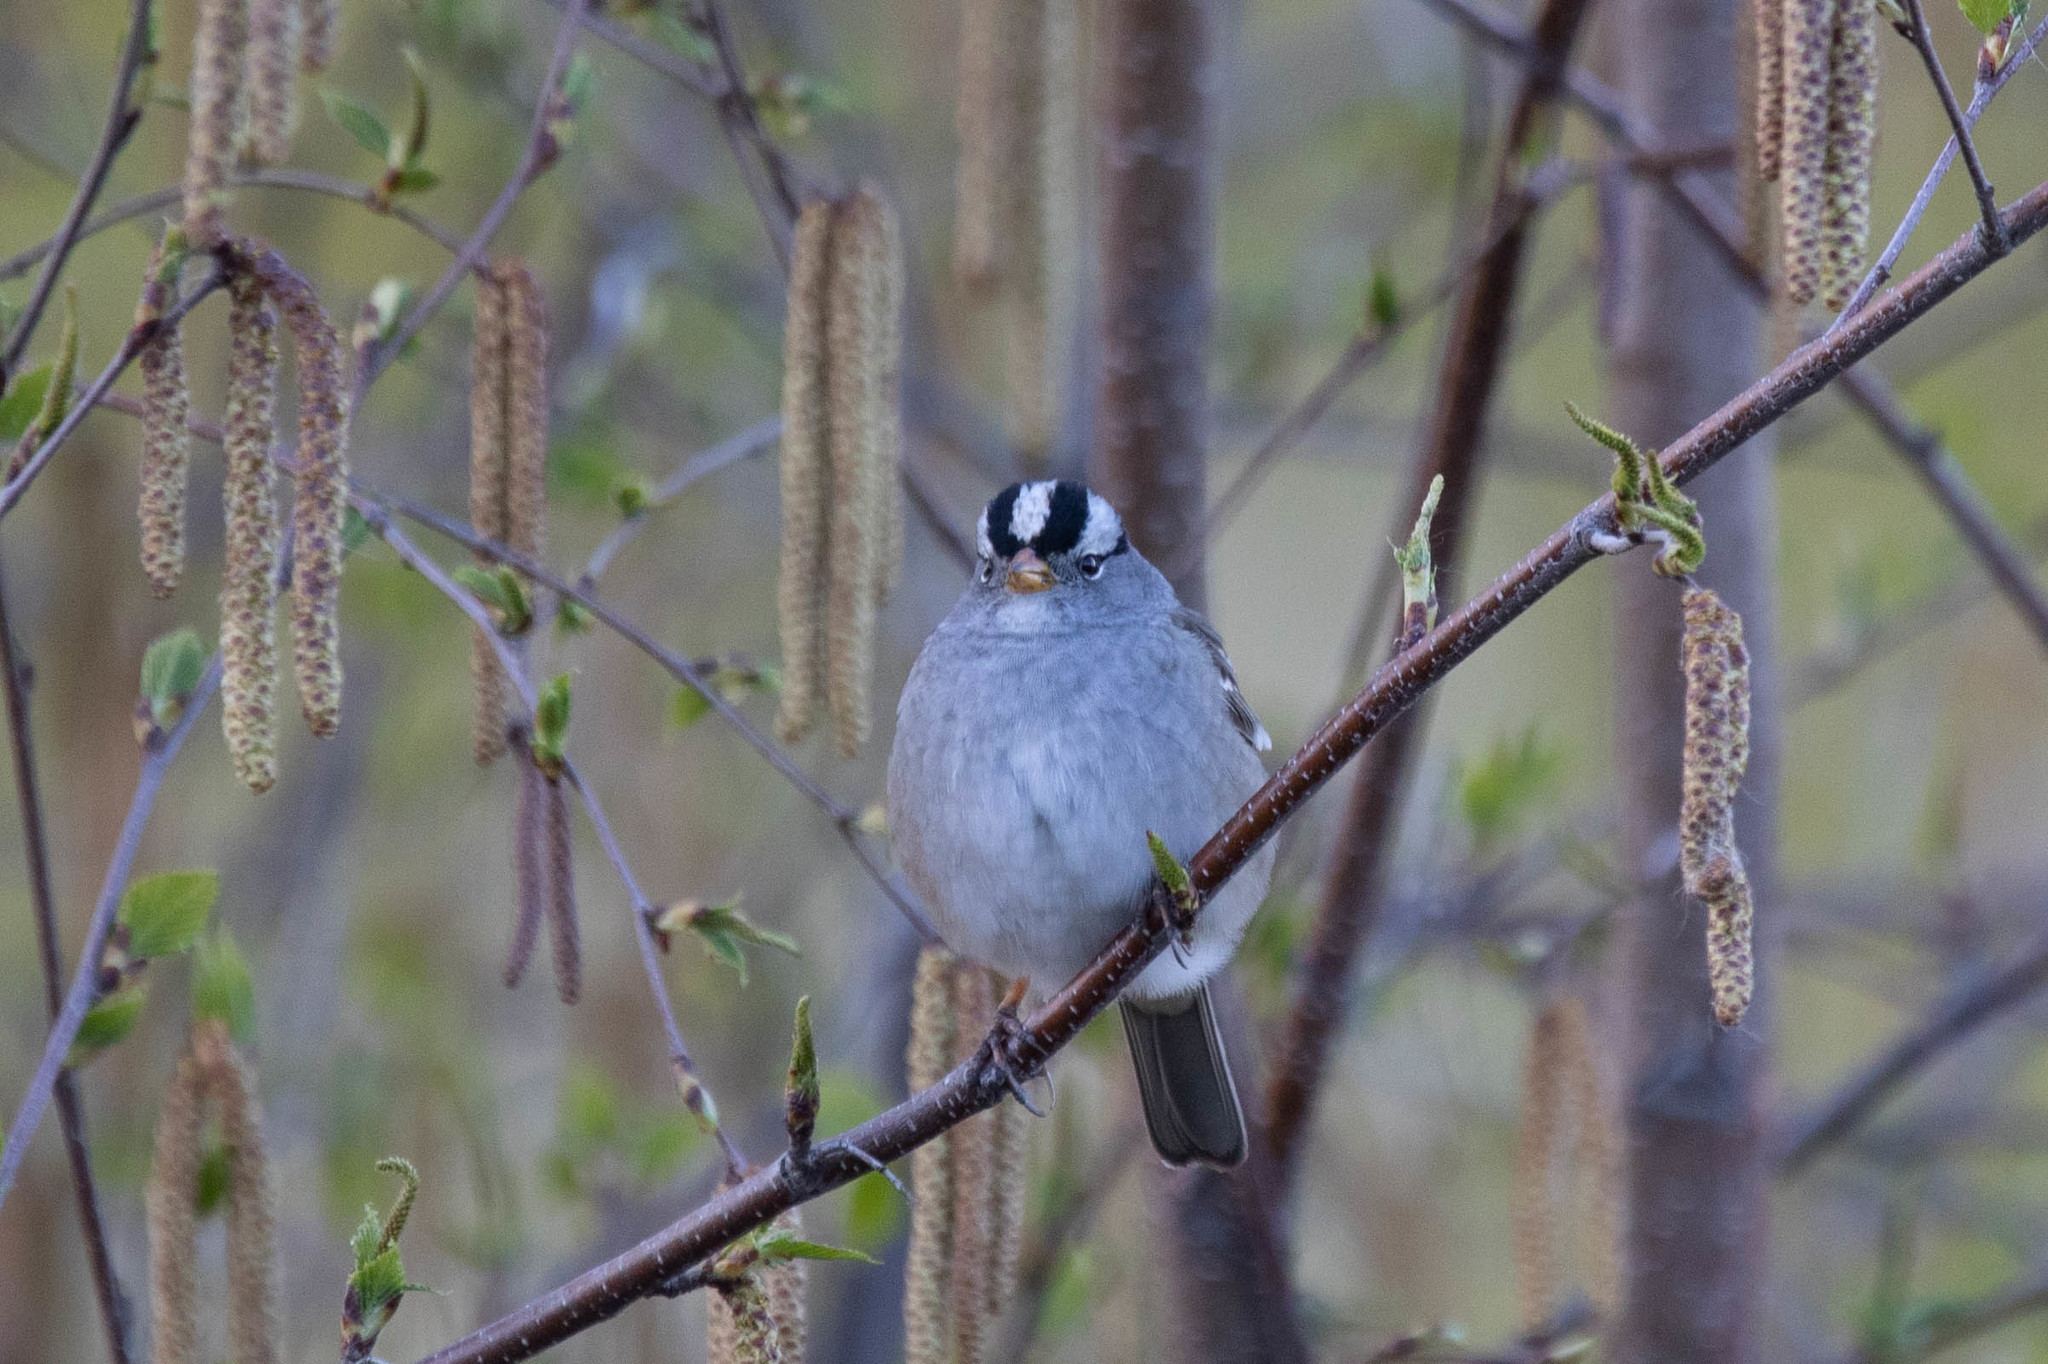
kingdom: Animalia
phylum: Chordata
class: Aves
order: Passeriformes
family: Passerellidae
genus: Zonotrichia
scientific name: Zonotrichia leucophrys
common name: White-crowned sparrow
